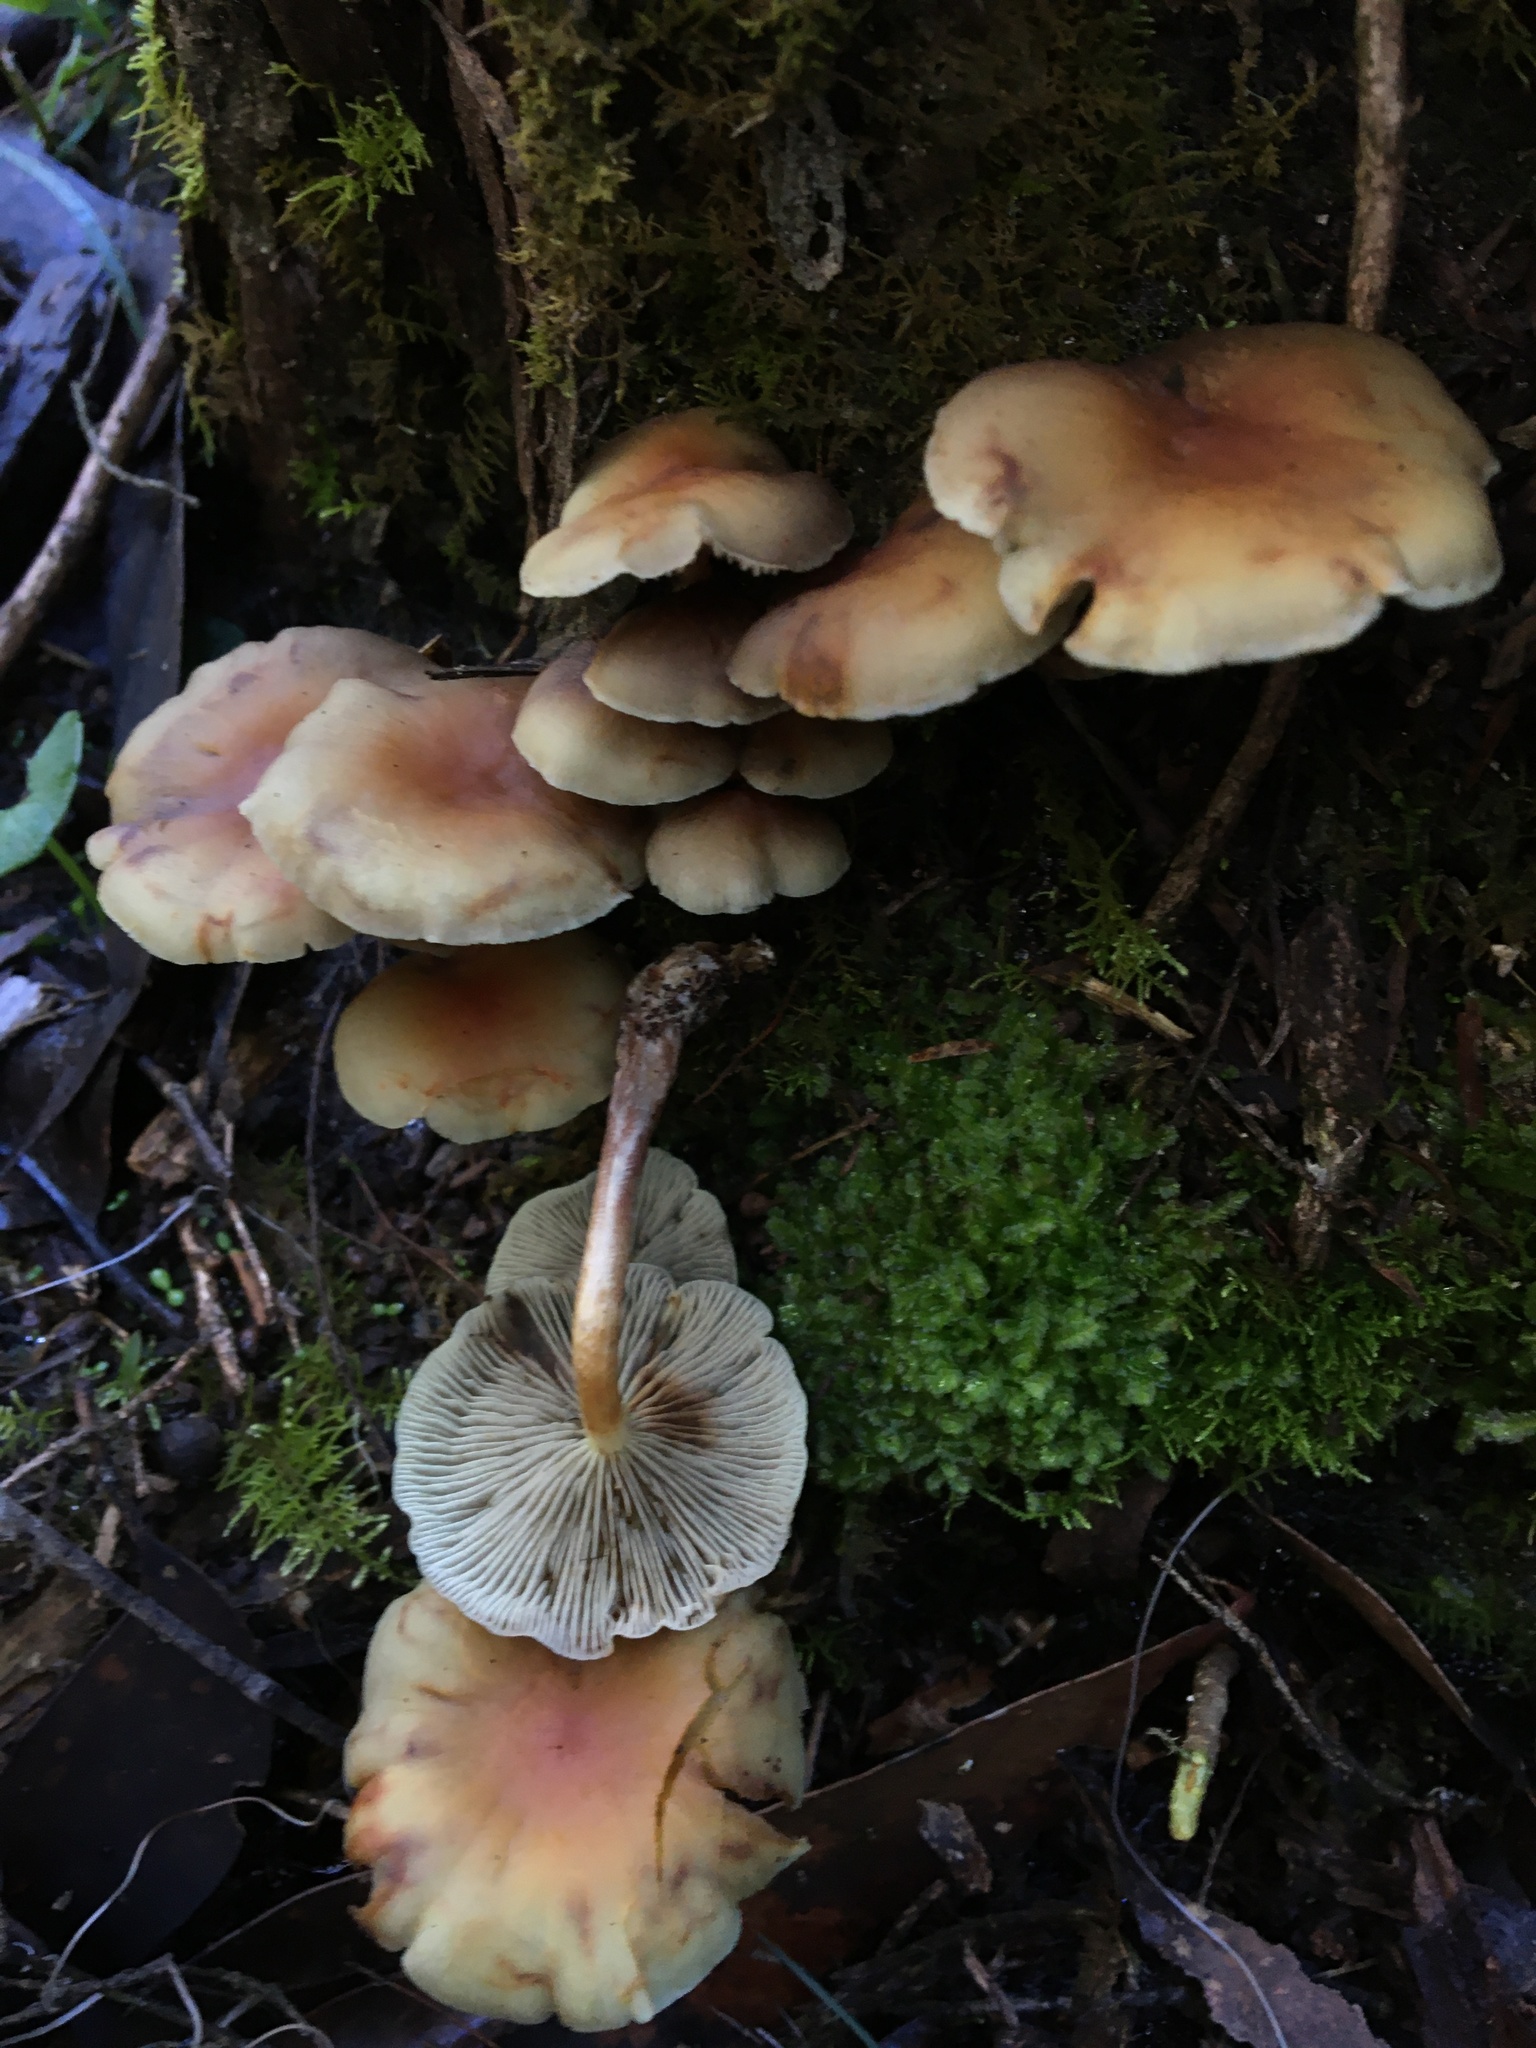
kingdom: Fungi
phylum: Basidiomycota
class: Agaricomycetes
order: Agaricales
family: Strophariaceae
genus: Hypholoma
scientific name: Hypholoma fasciculare
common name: Sulphur tuft
